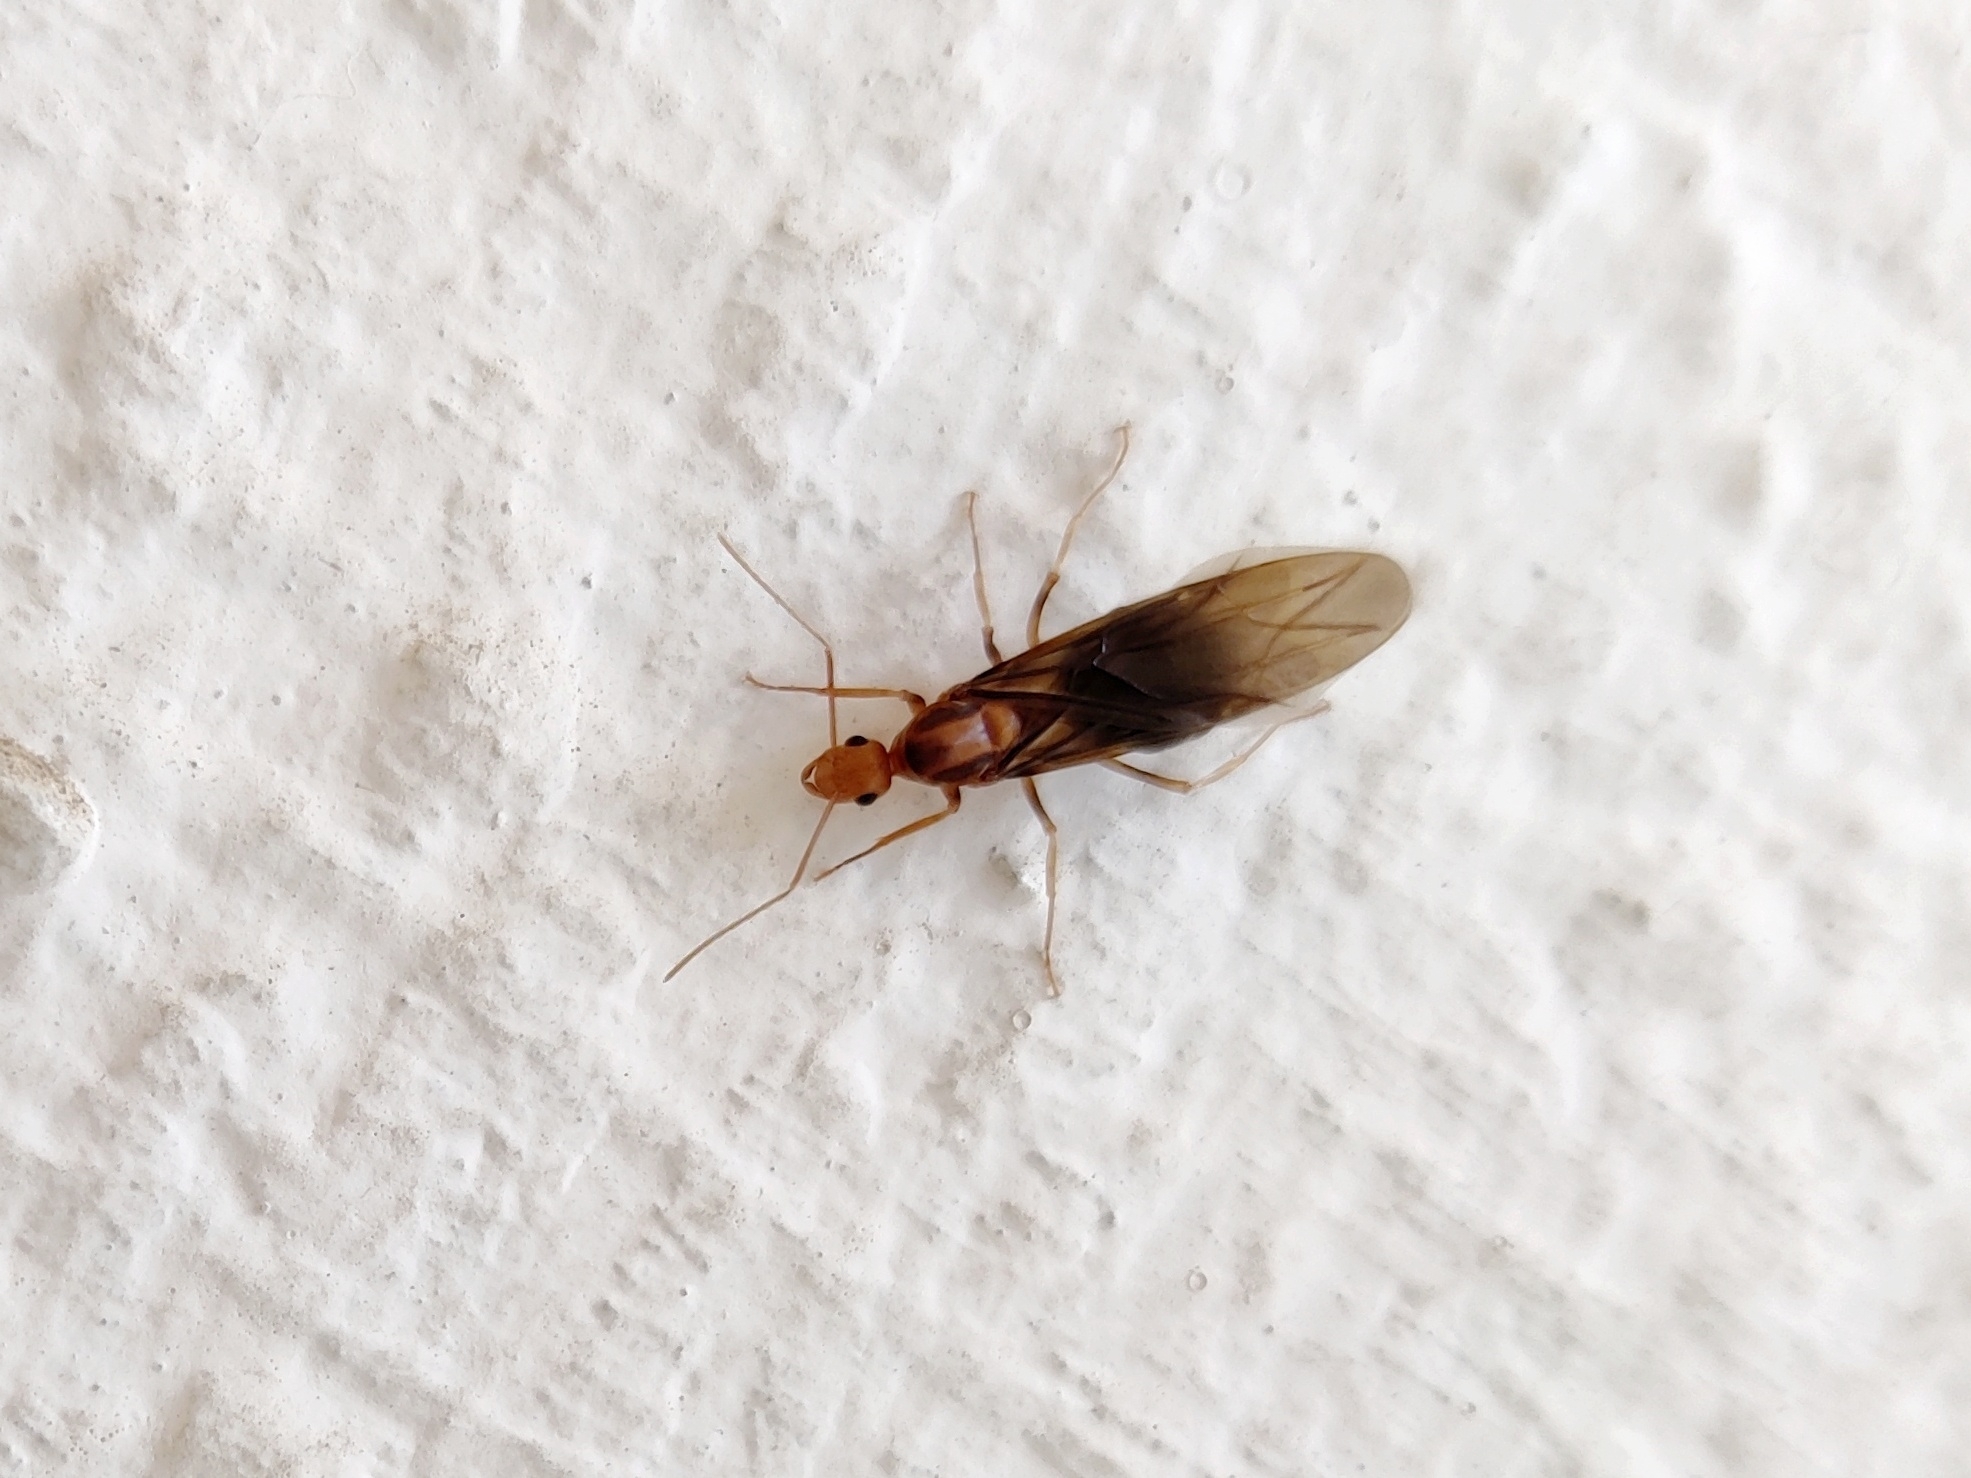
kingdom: Animalia
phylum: Arthropoda
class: Insecta
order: Hymenoptera
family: Formicidae
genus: Anoplolepis
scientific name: Anoplolepis gracilipes
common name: Ant
